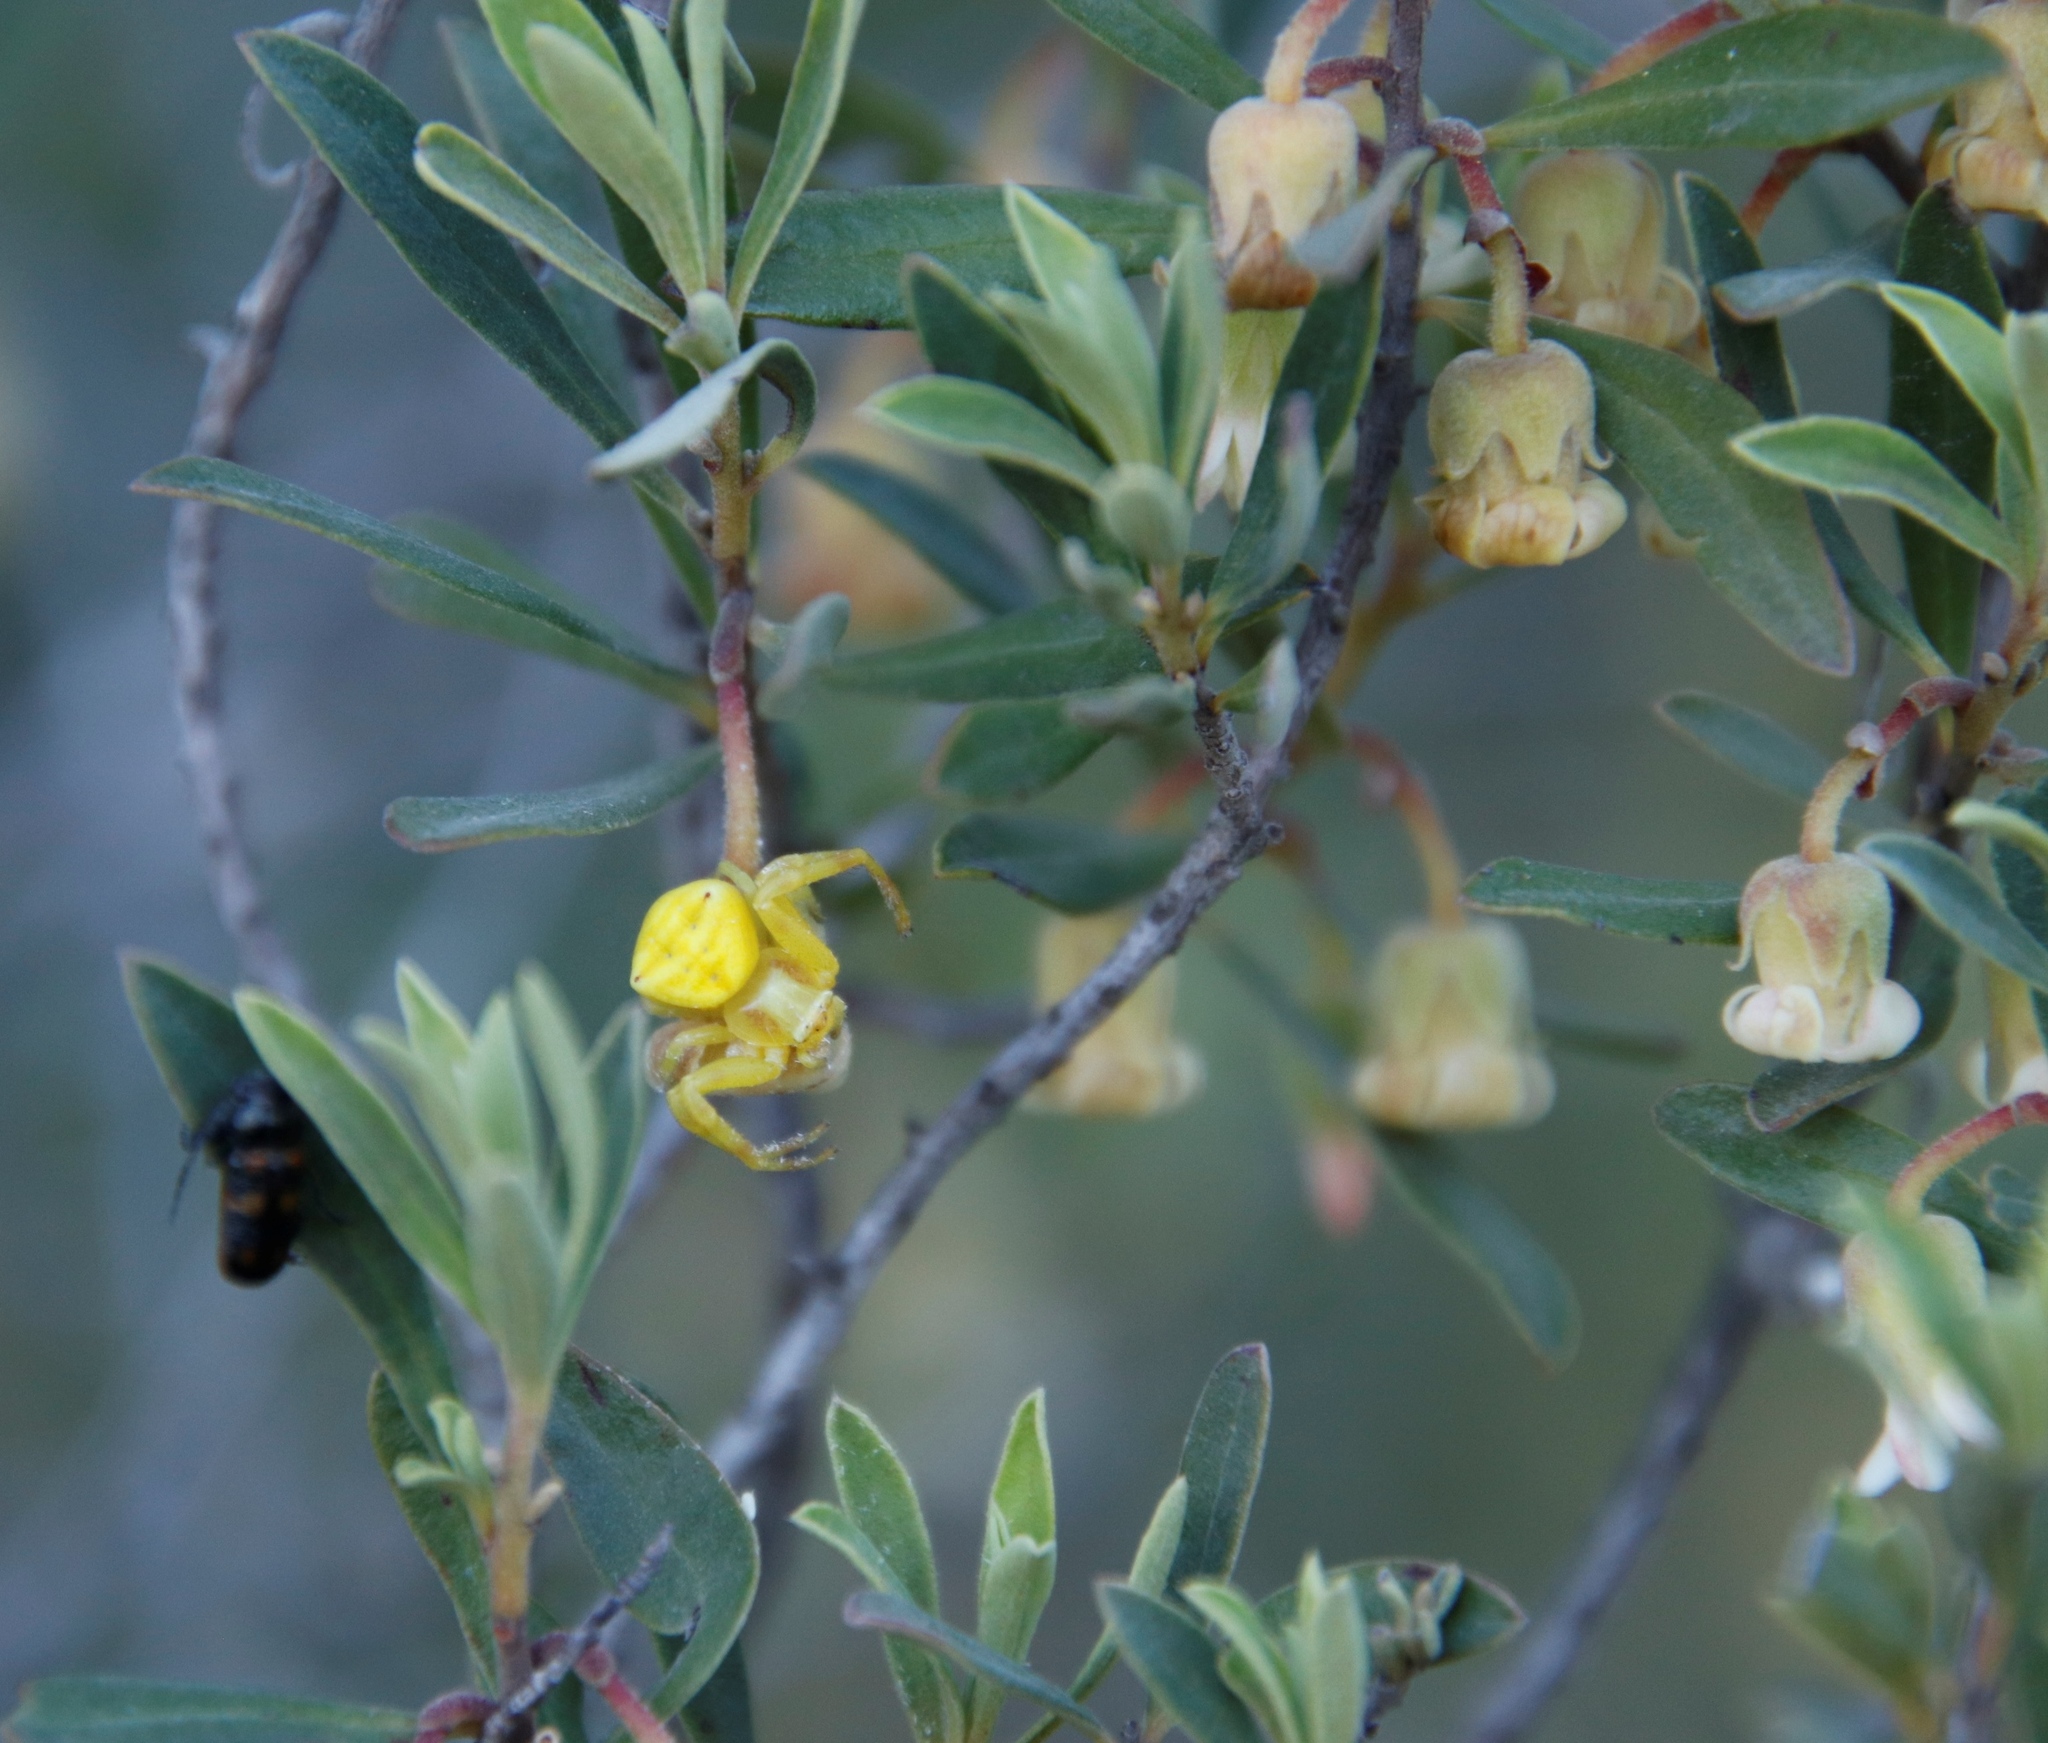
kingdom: Plantae
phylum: Tracheophyta
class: Magnoliopsida
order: Ericales
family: Ebenaceae
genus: Diospyros
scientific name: Diospyros glabra
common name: Fynbos star apple
